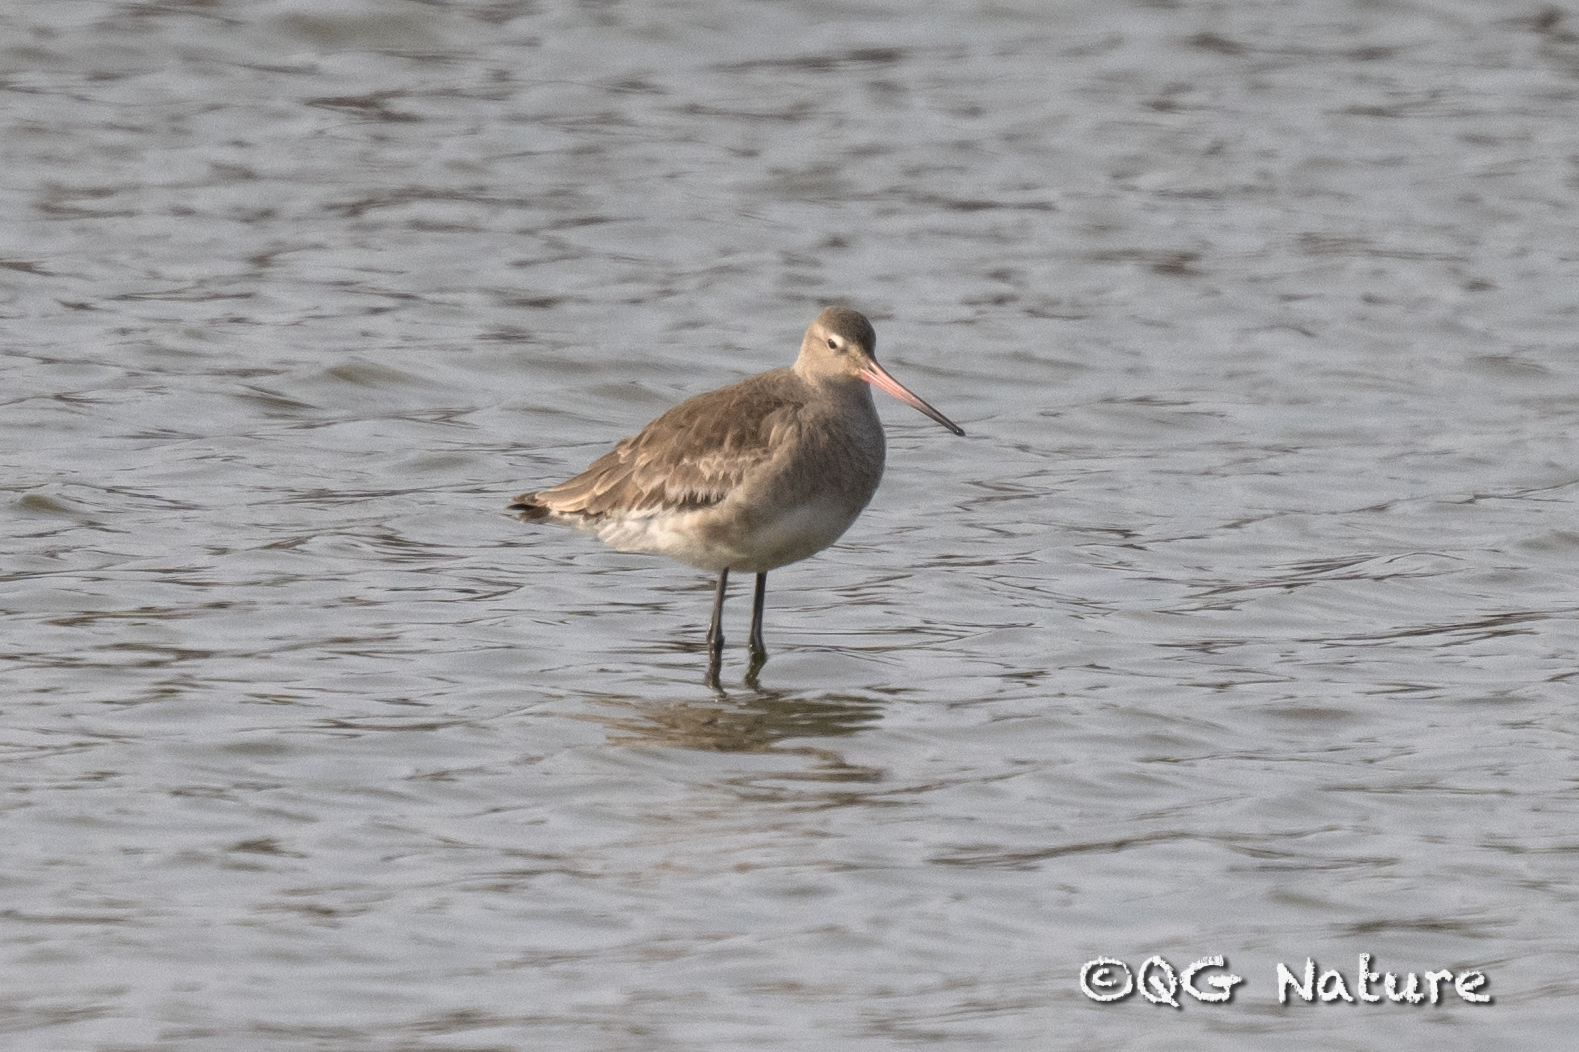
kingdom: Animalia
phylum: Chordata
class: Aves
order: Charadriiformes
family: Scolopacidae
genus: Limosa
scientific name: Limosa limosa
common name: Black-tailed godwit
